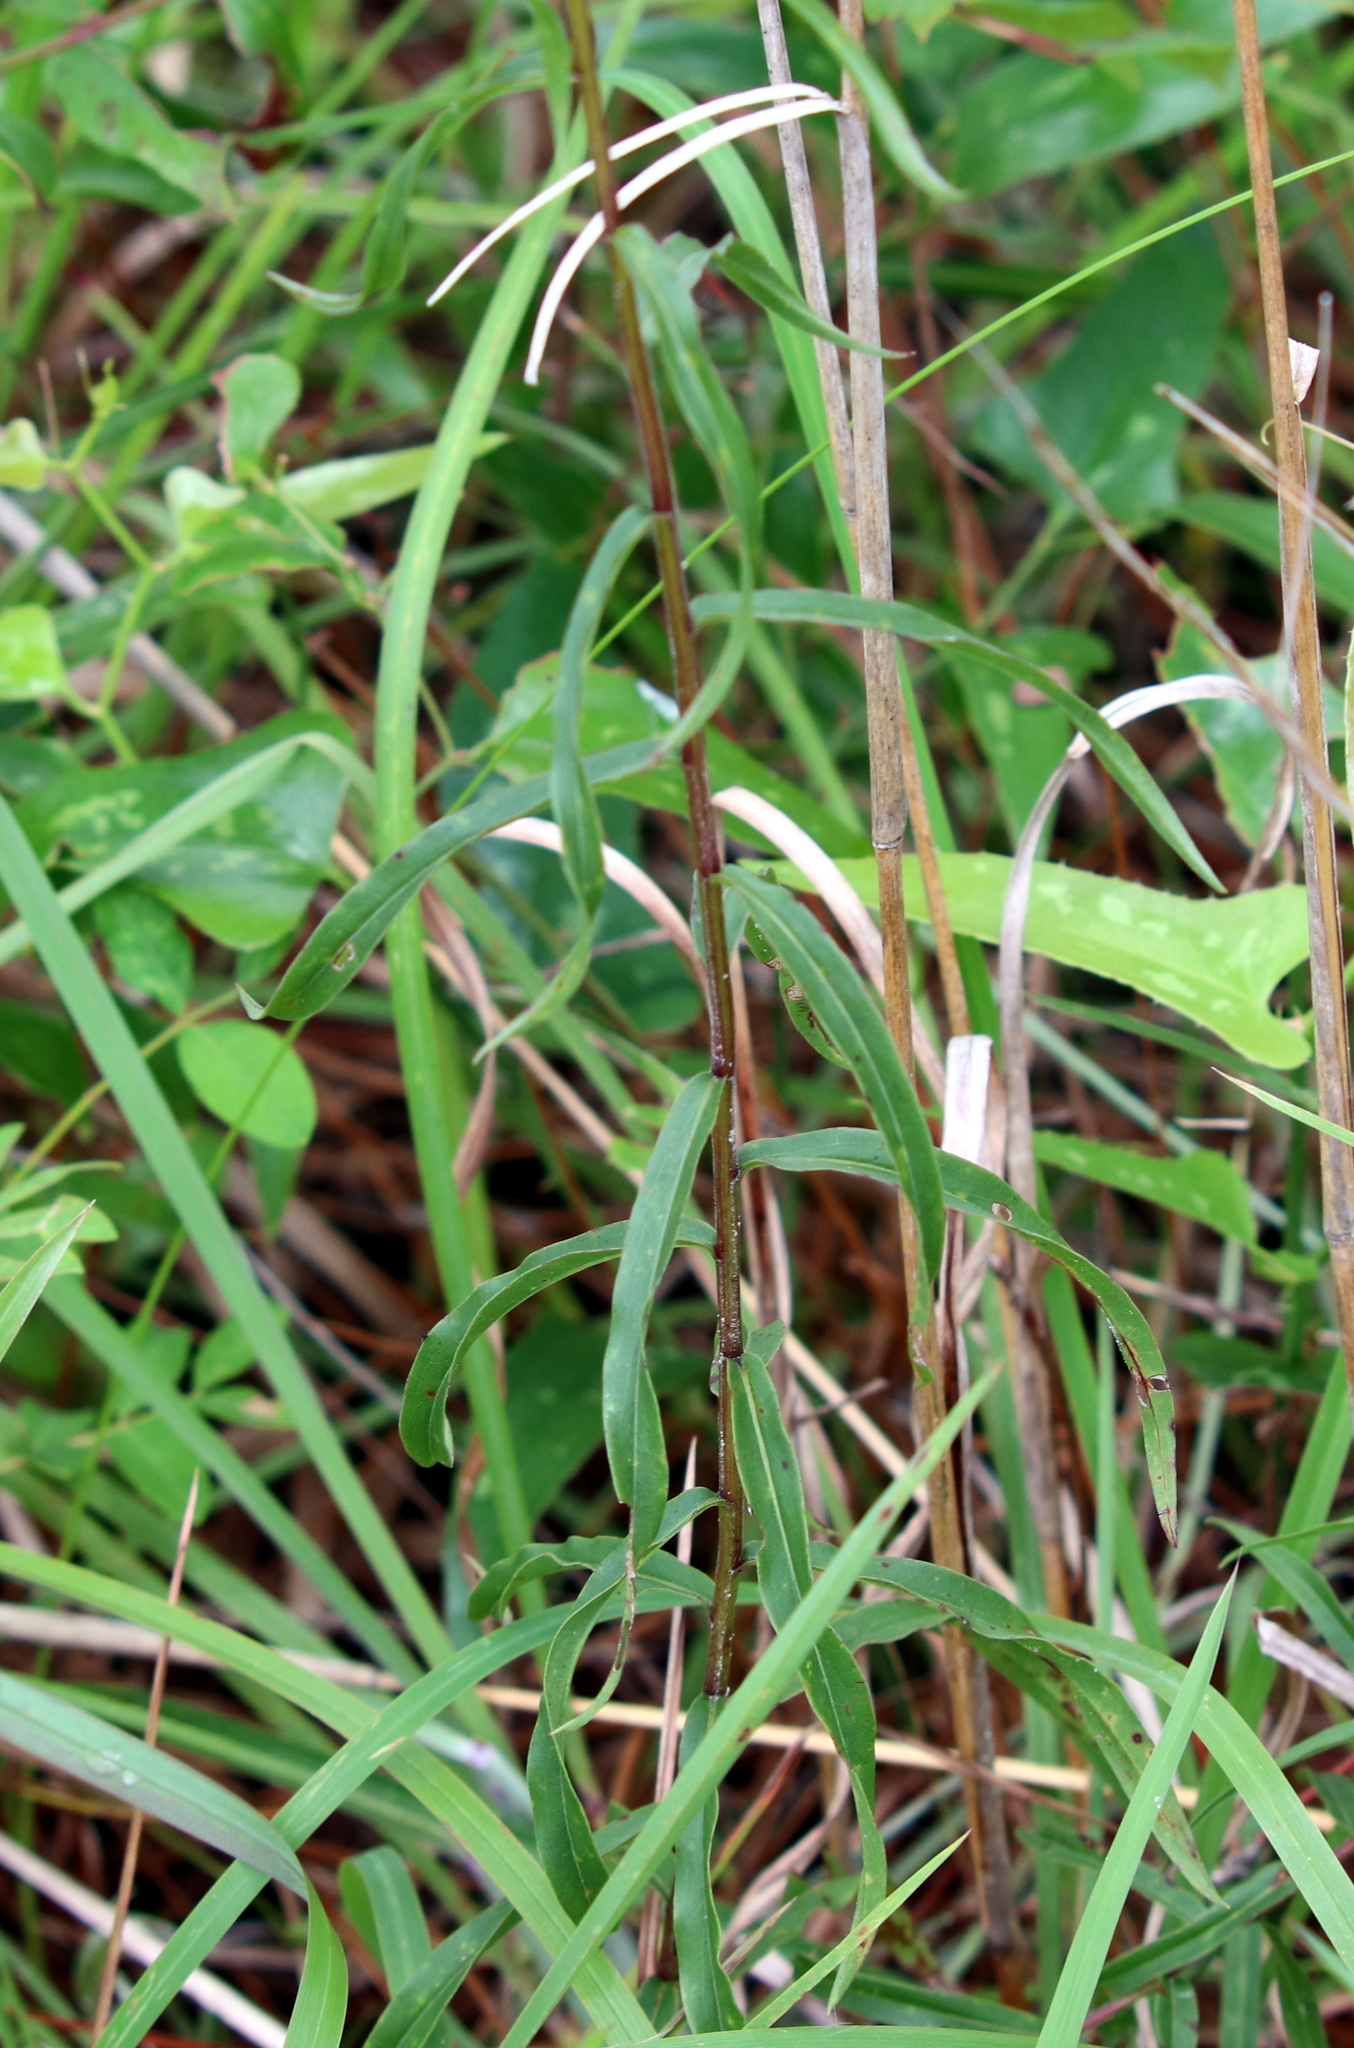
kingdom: Plantae
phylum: Tracheophyta
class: Magnoliopsida
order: Asterales
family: Asteraceae
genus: Solidago
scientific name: Solidago odora
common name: Anise-scented goldenrod
